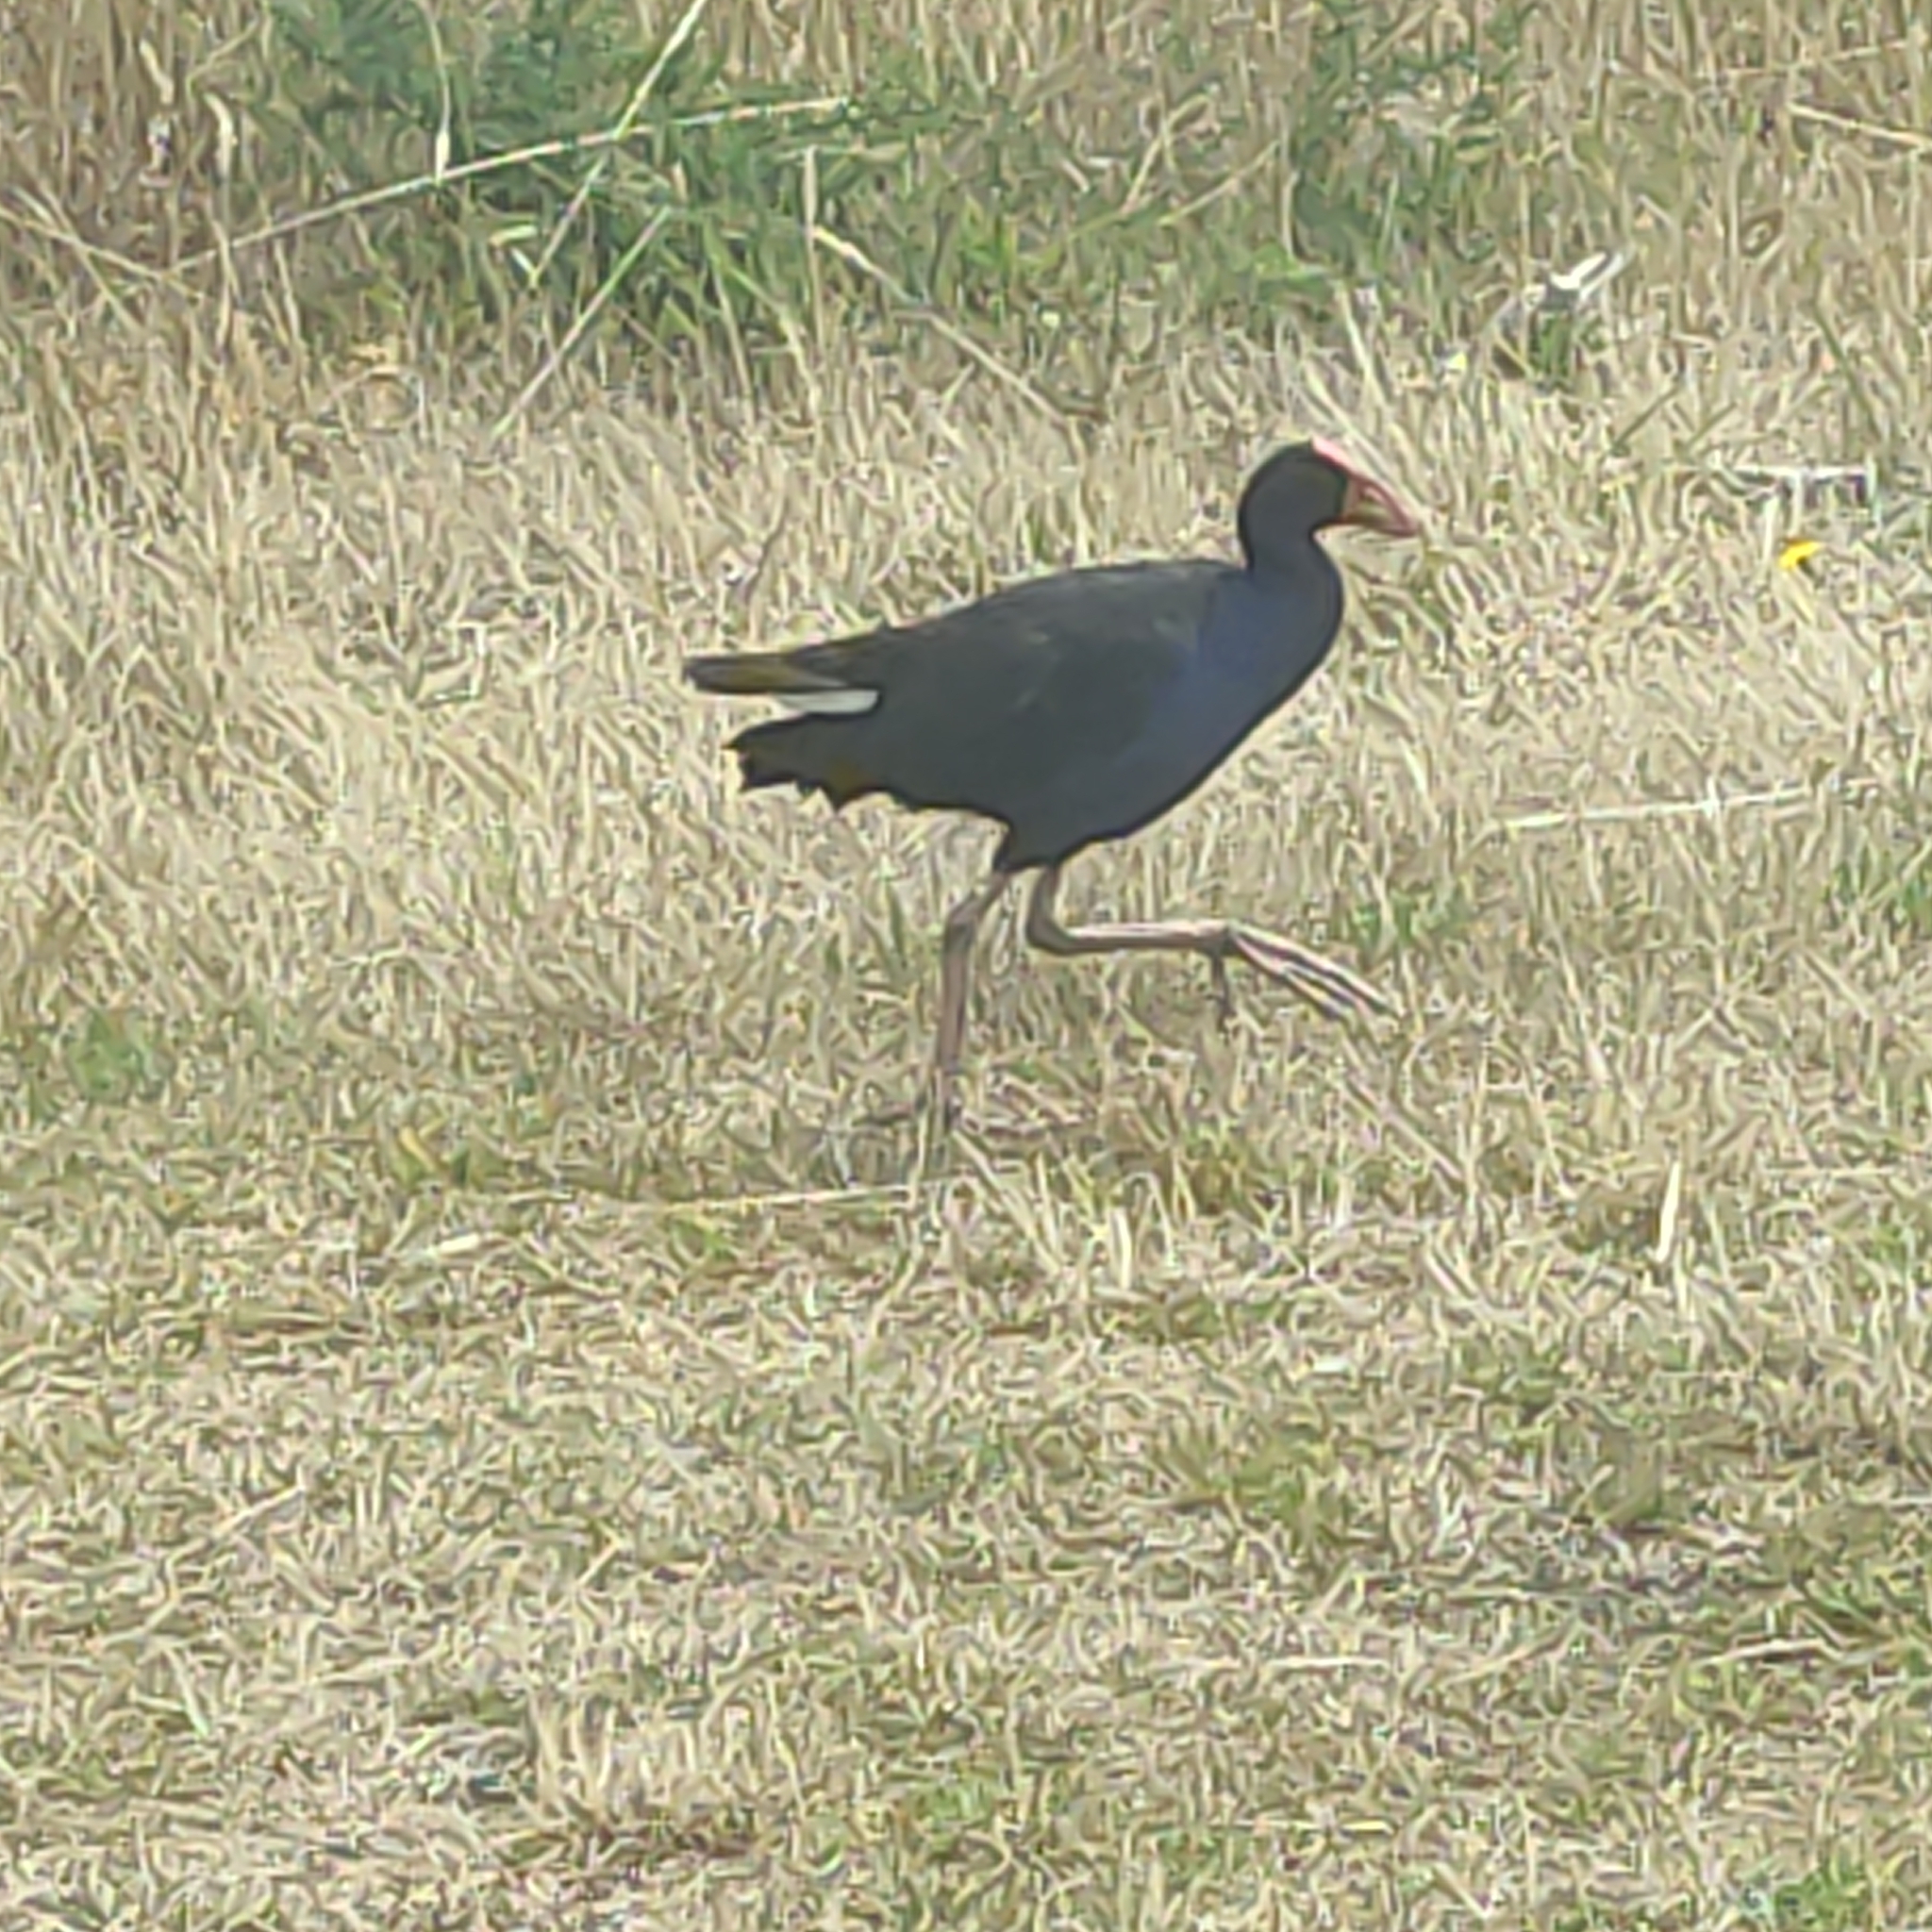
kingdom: Animalia
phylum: Chordata
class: Aves
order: Gruiformes
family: Rallidae
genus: Porphyrio
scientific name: Porphyrio melanotus
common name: Australasian swamphen
